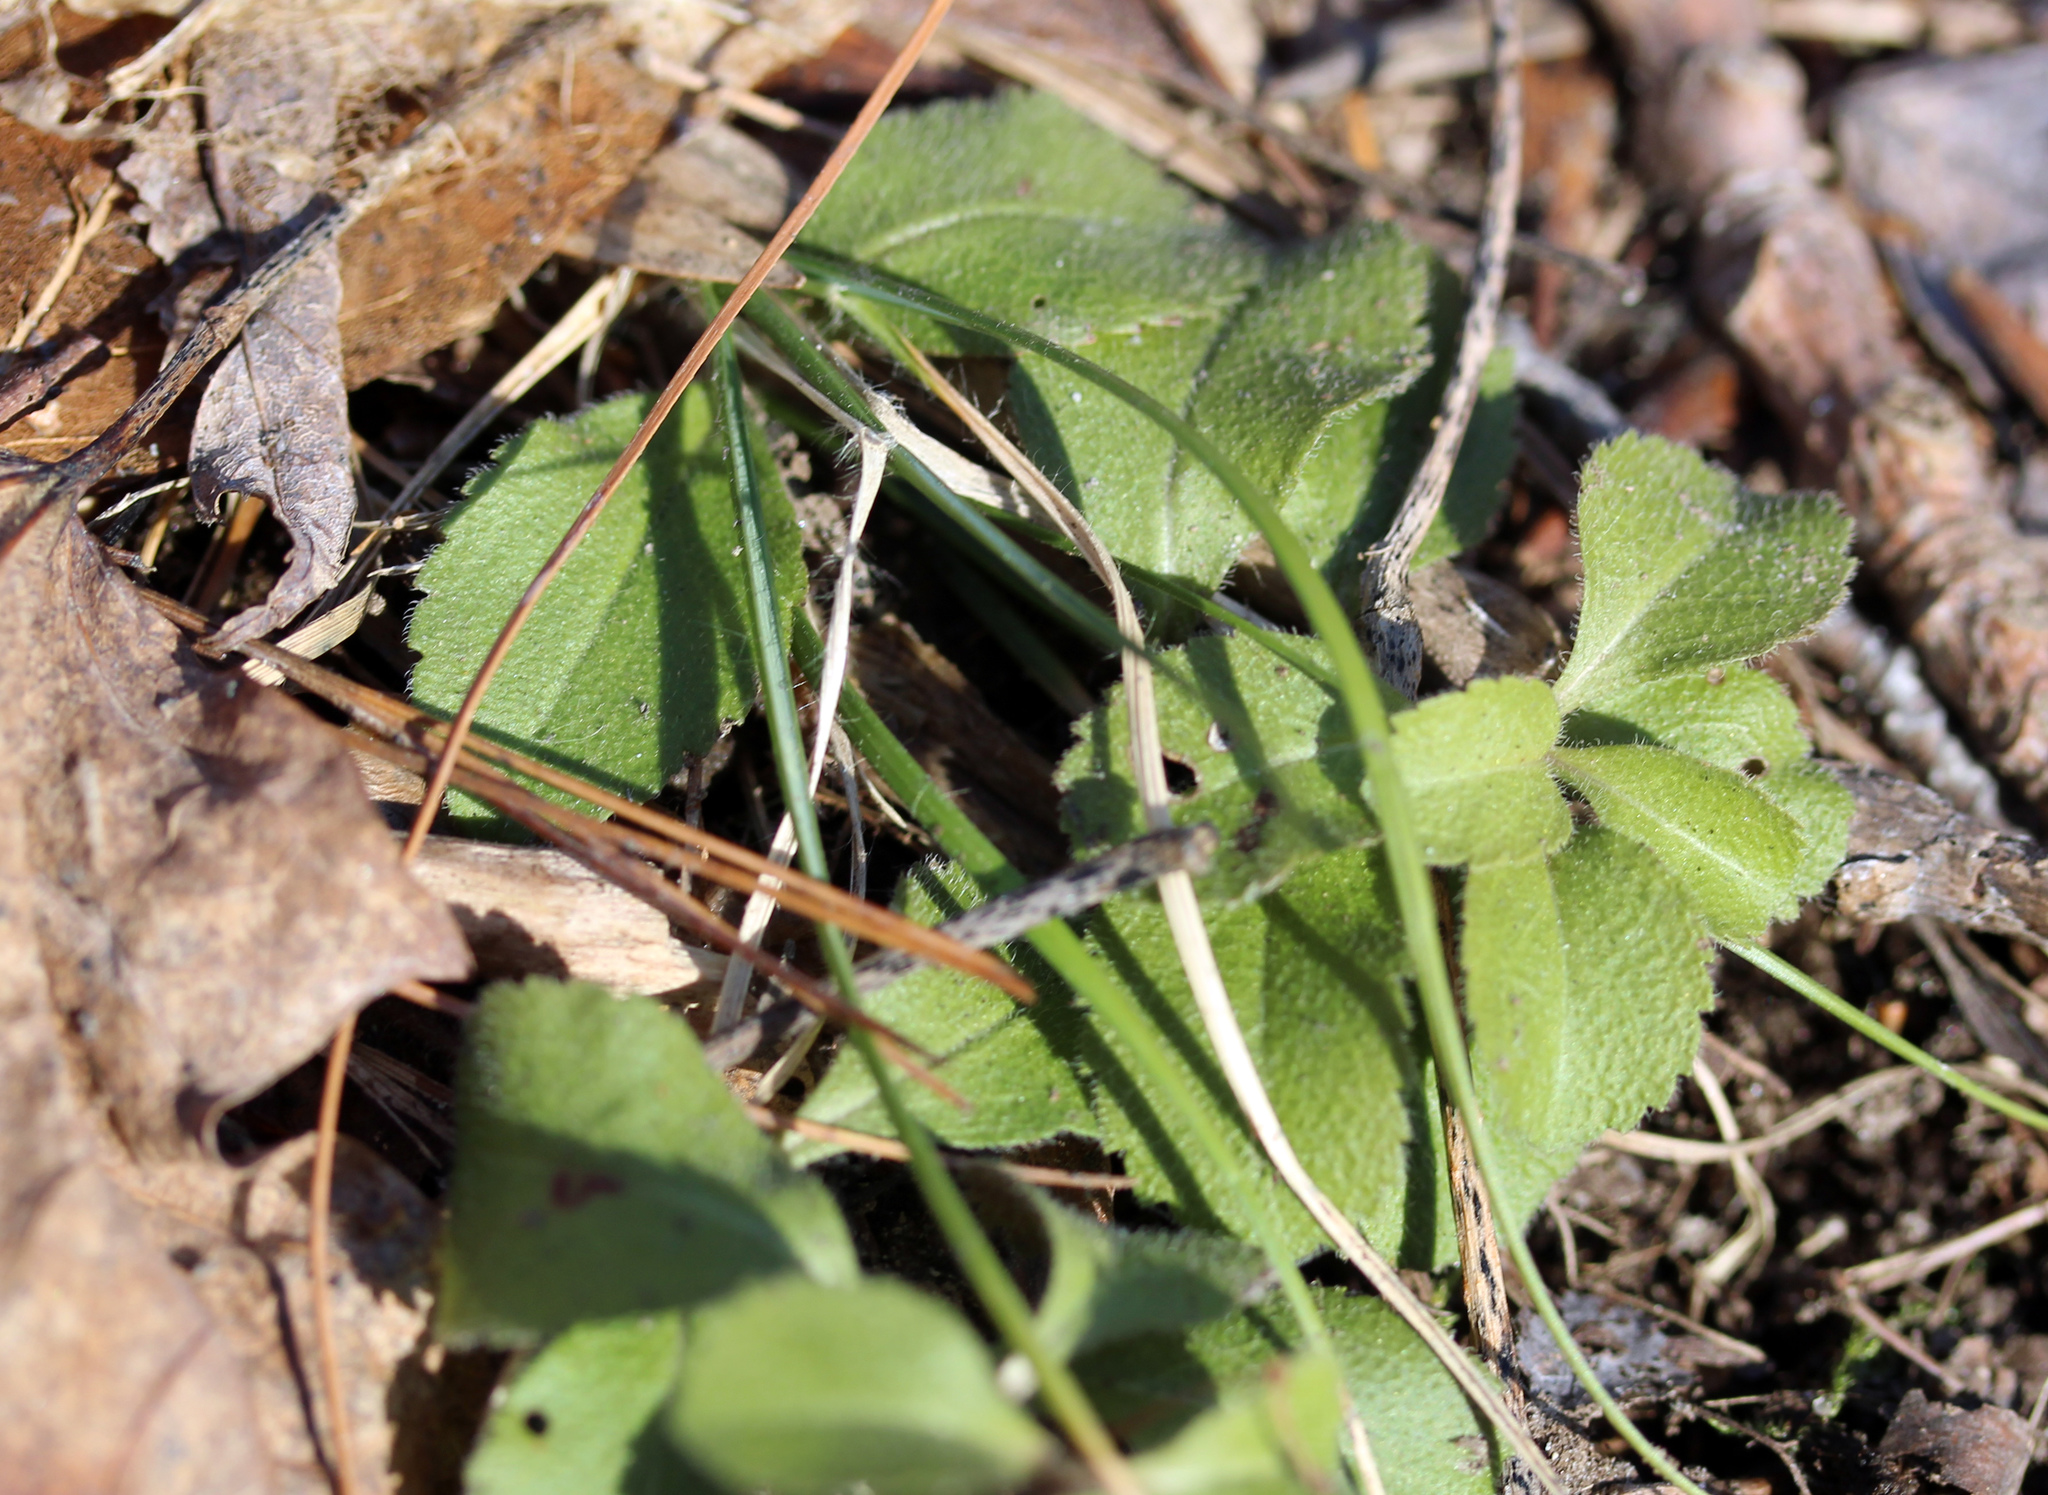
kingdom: Plantae
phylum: Tracheophyta
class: Magnoliopsida
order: Lamiales
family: Plantaginaceae
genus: Veronica
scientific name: Veronica officinalis
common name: Common speedwell
